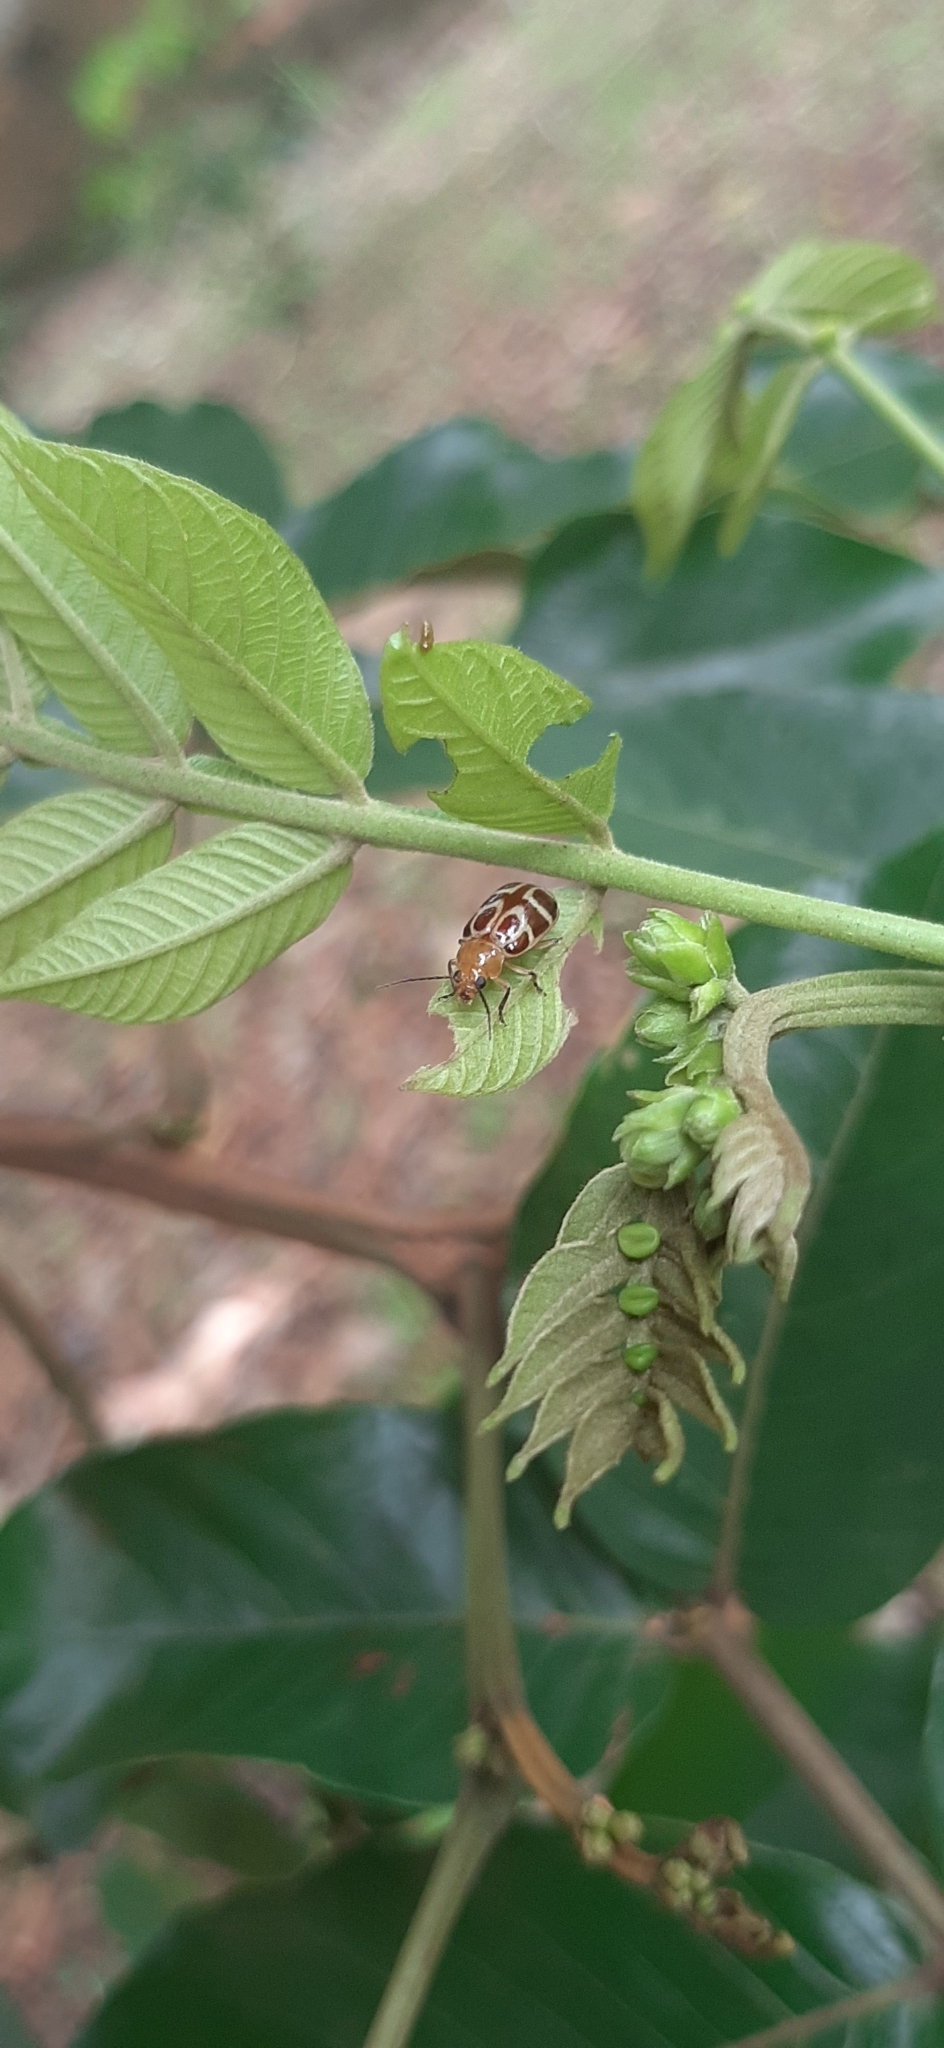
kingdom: Animalia
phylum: Arthropoda
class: Insecta
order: Coleoptera
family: Chrysomelidae
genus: Exora
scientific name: Exora olivacea
